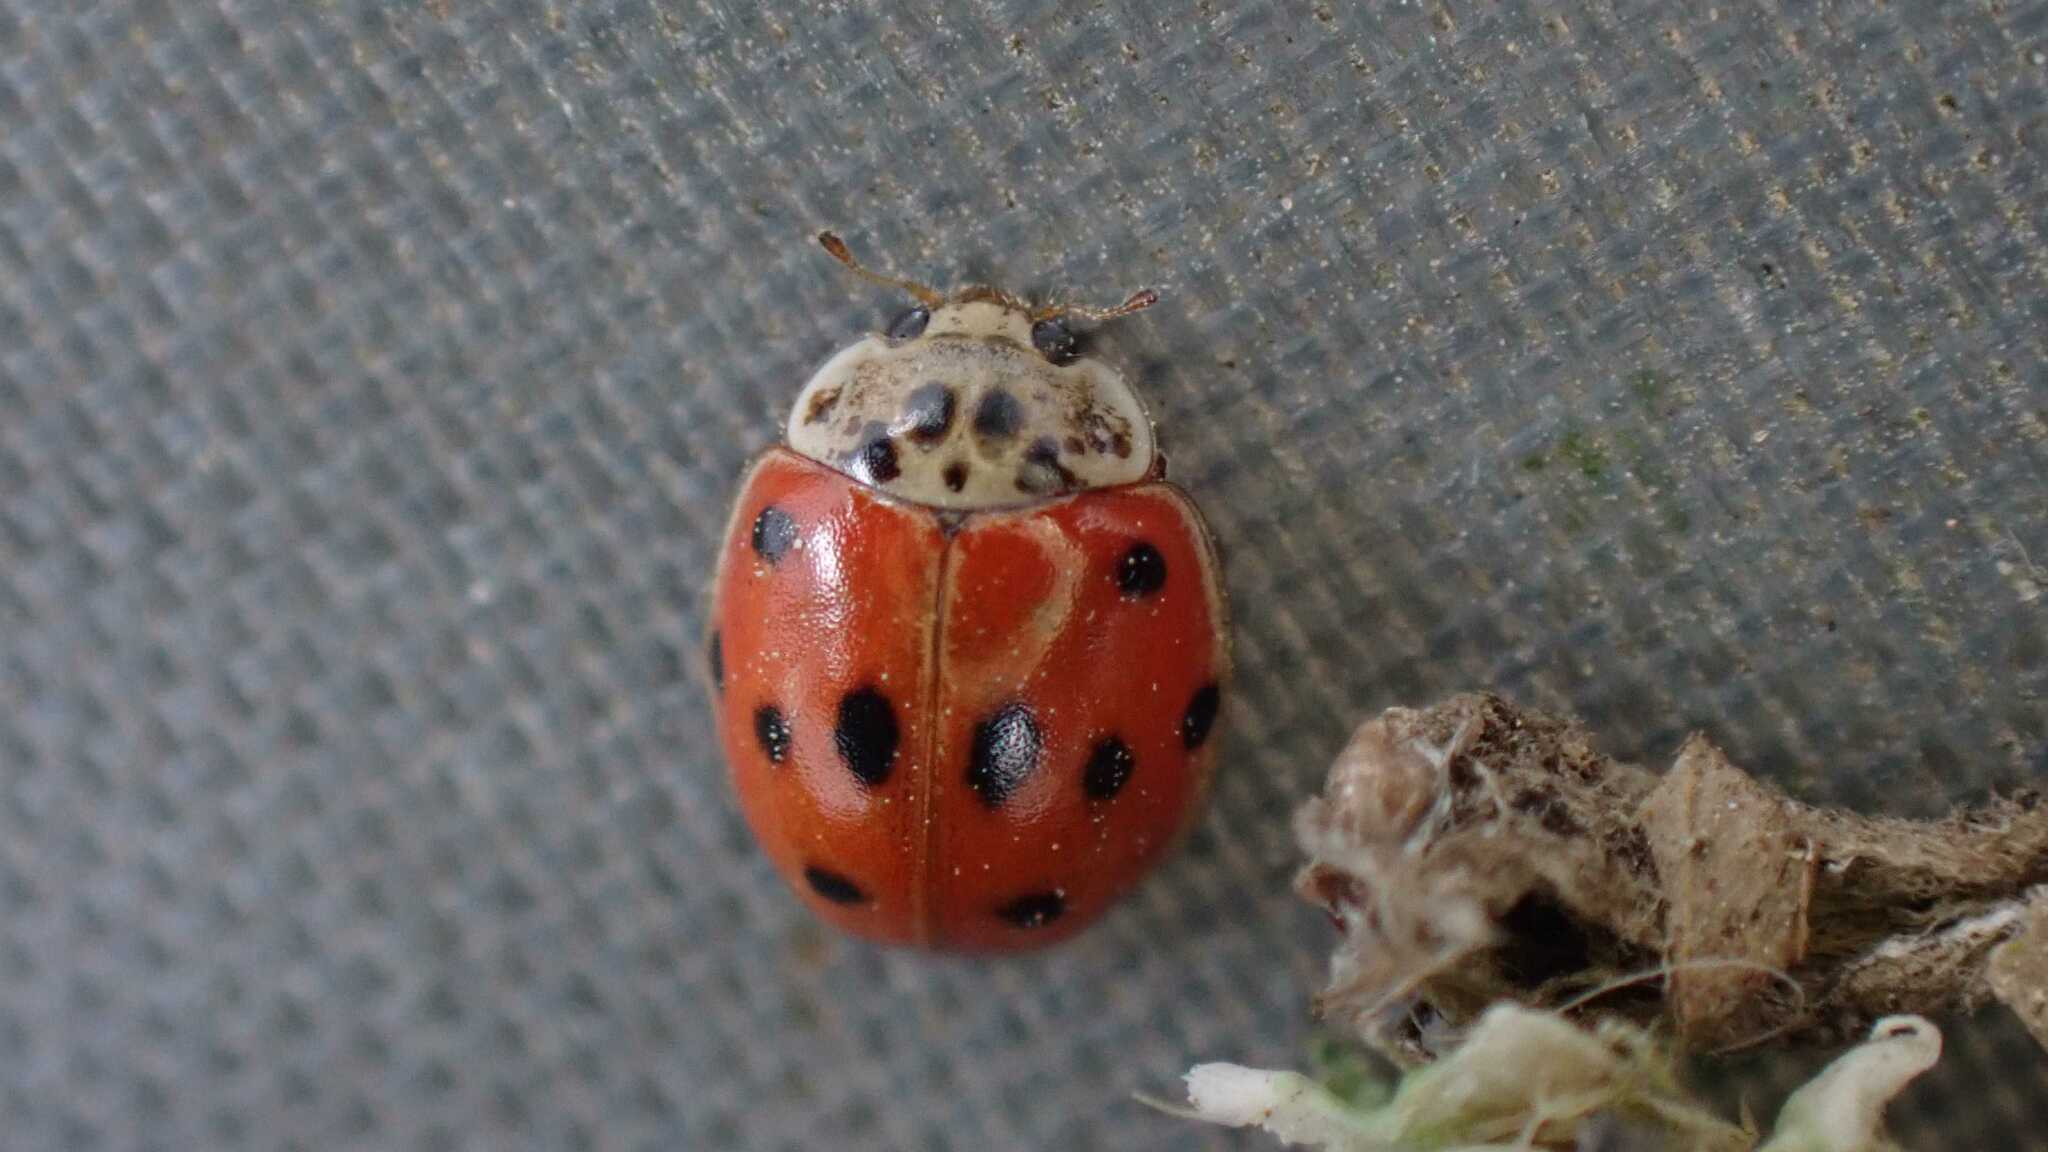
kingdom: Animalia
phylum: Arthropoda
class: Insecta
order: Coleoptera
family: Coccinellidae
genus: Adalia
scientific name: Adalia decempunctata
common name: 10-spot ladybird
